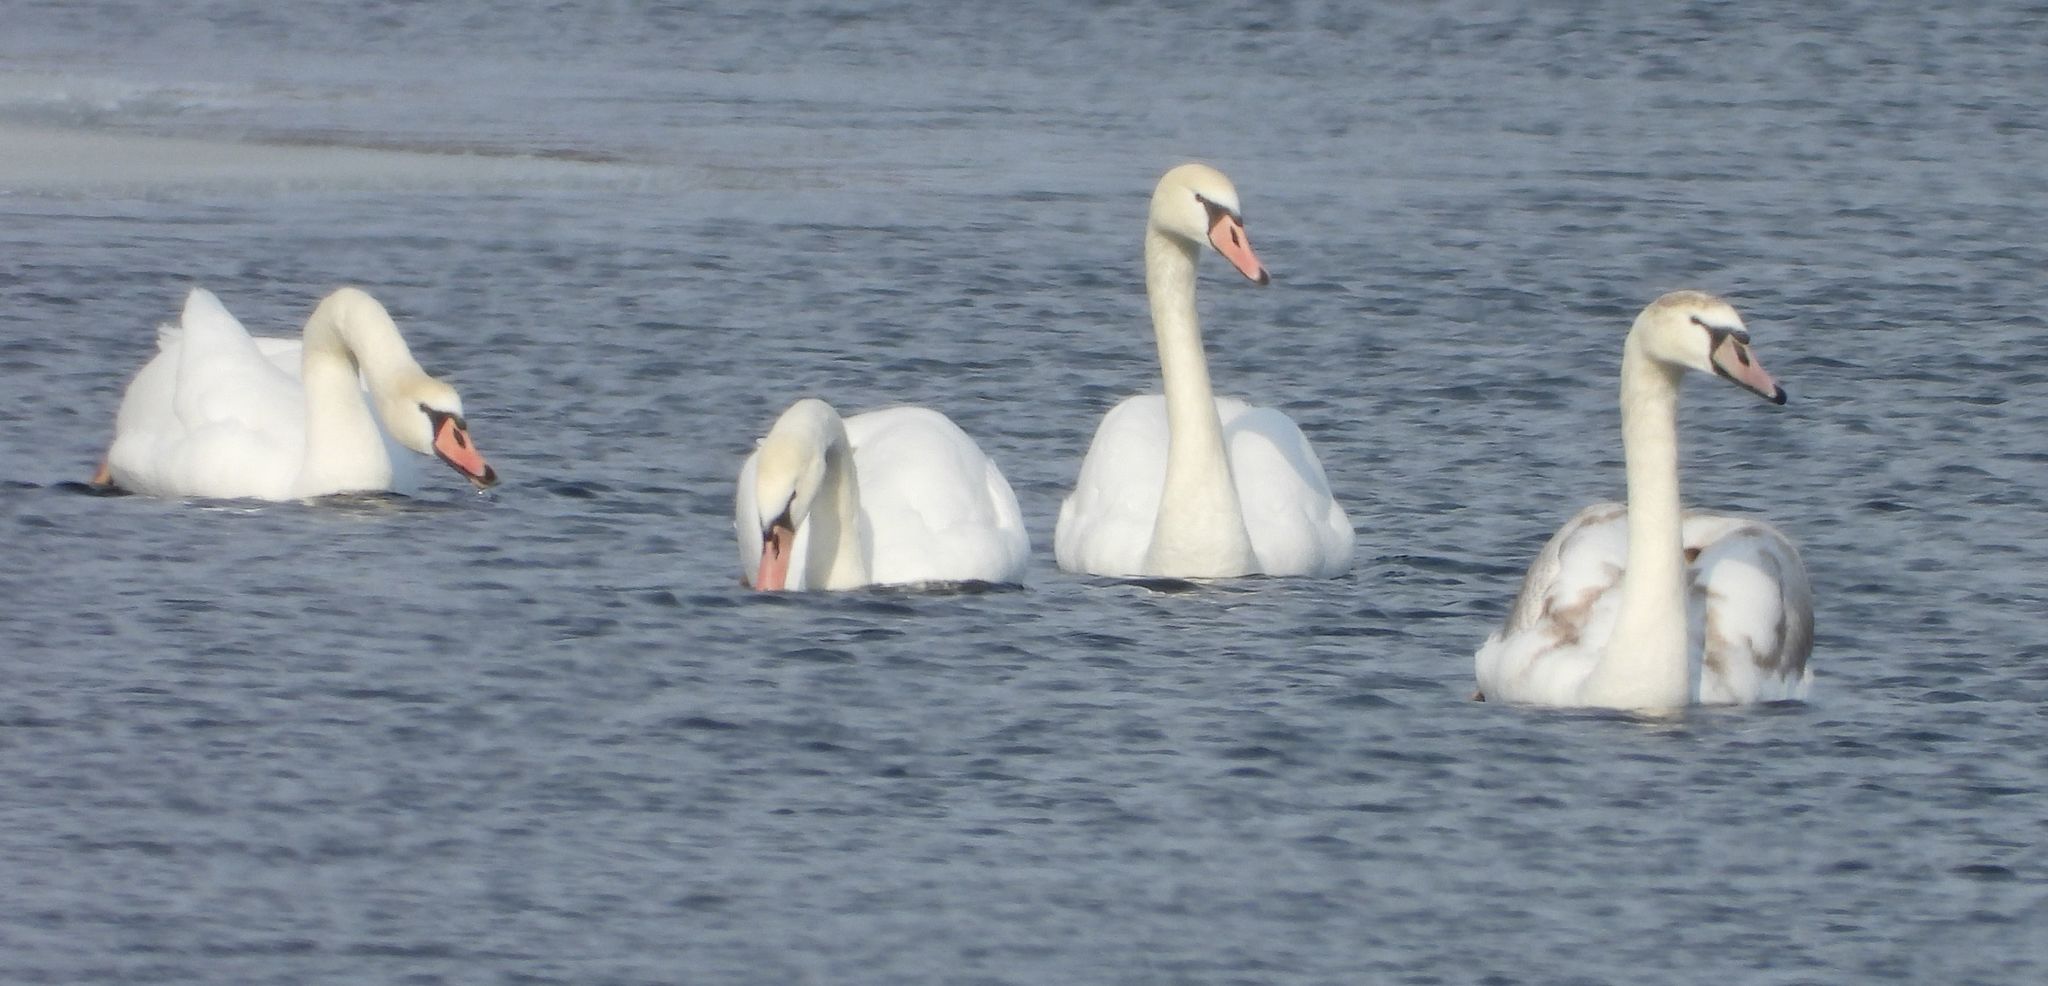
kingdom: Animalia
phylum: Chordata
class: Aves
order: Anseriformes
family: Anatidae
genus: Cygnus
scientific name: Cygnus olor
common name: Mute swan
